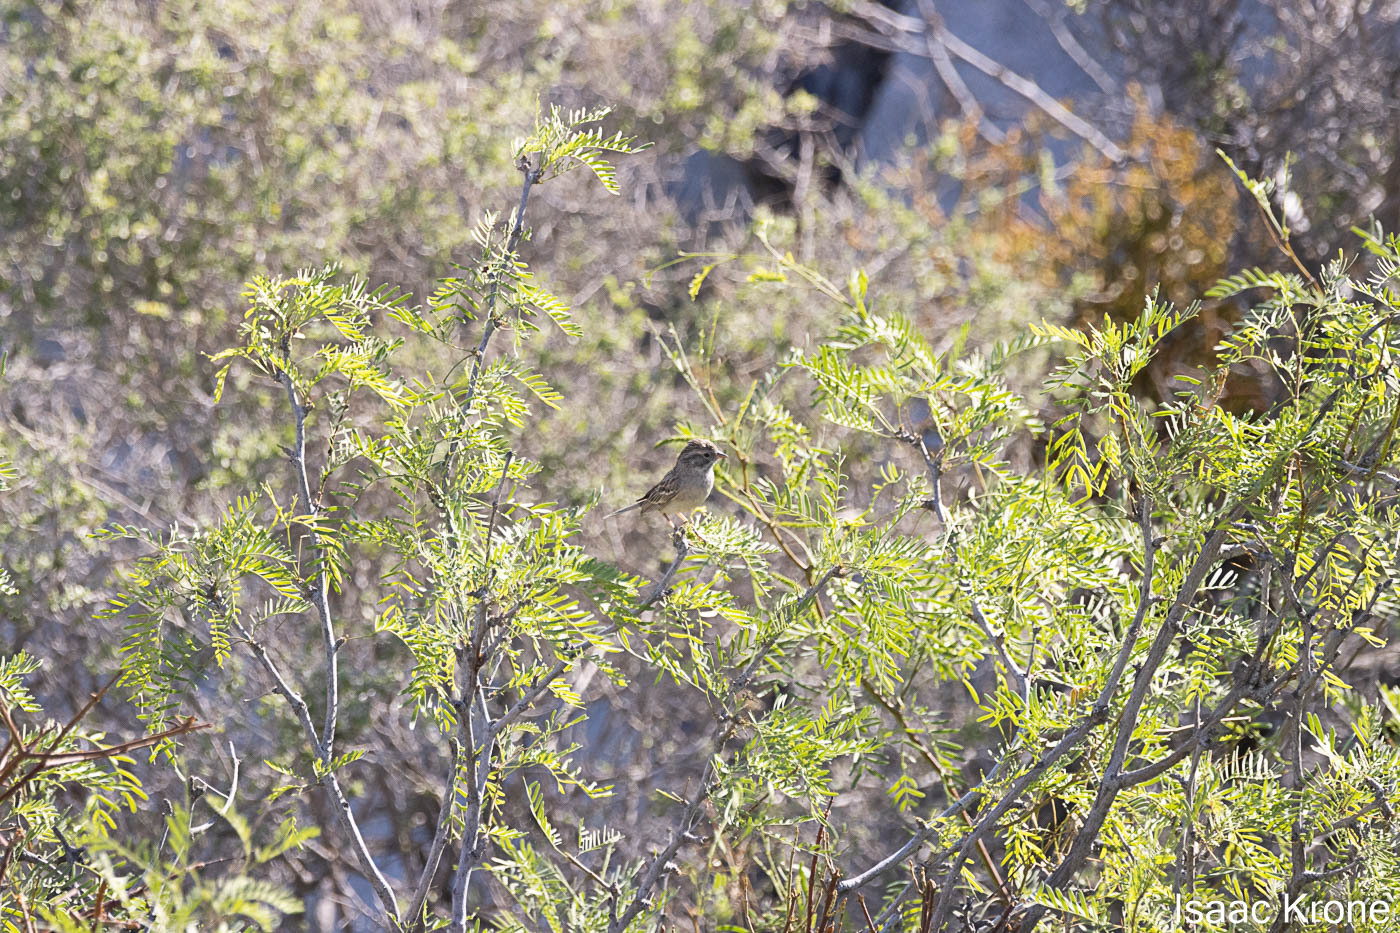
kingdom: Animalia
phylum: Chordata
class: Aves
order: Passeriformes
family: Passerellidae
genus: Spizella
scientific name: Spizella breweri
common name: Brewer's sparrow
